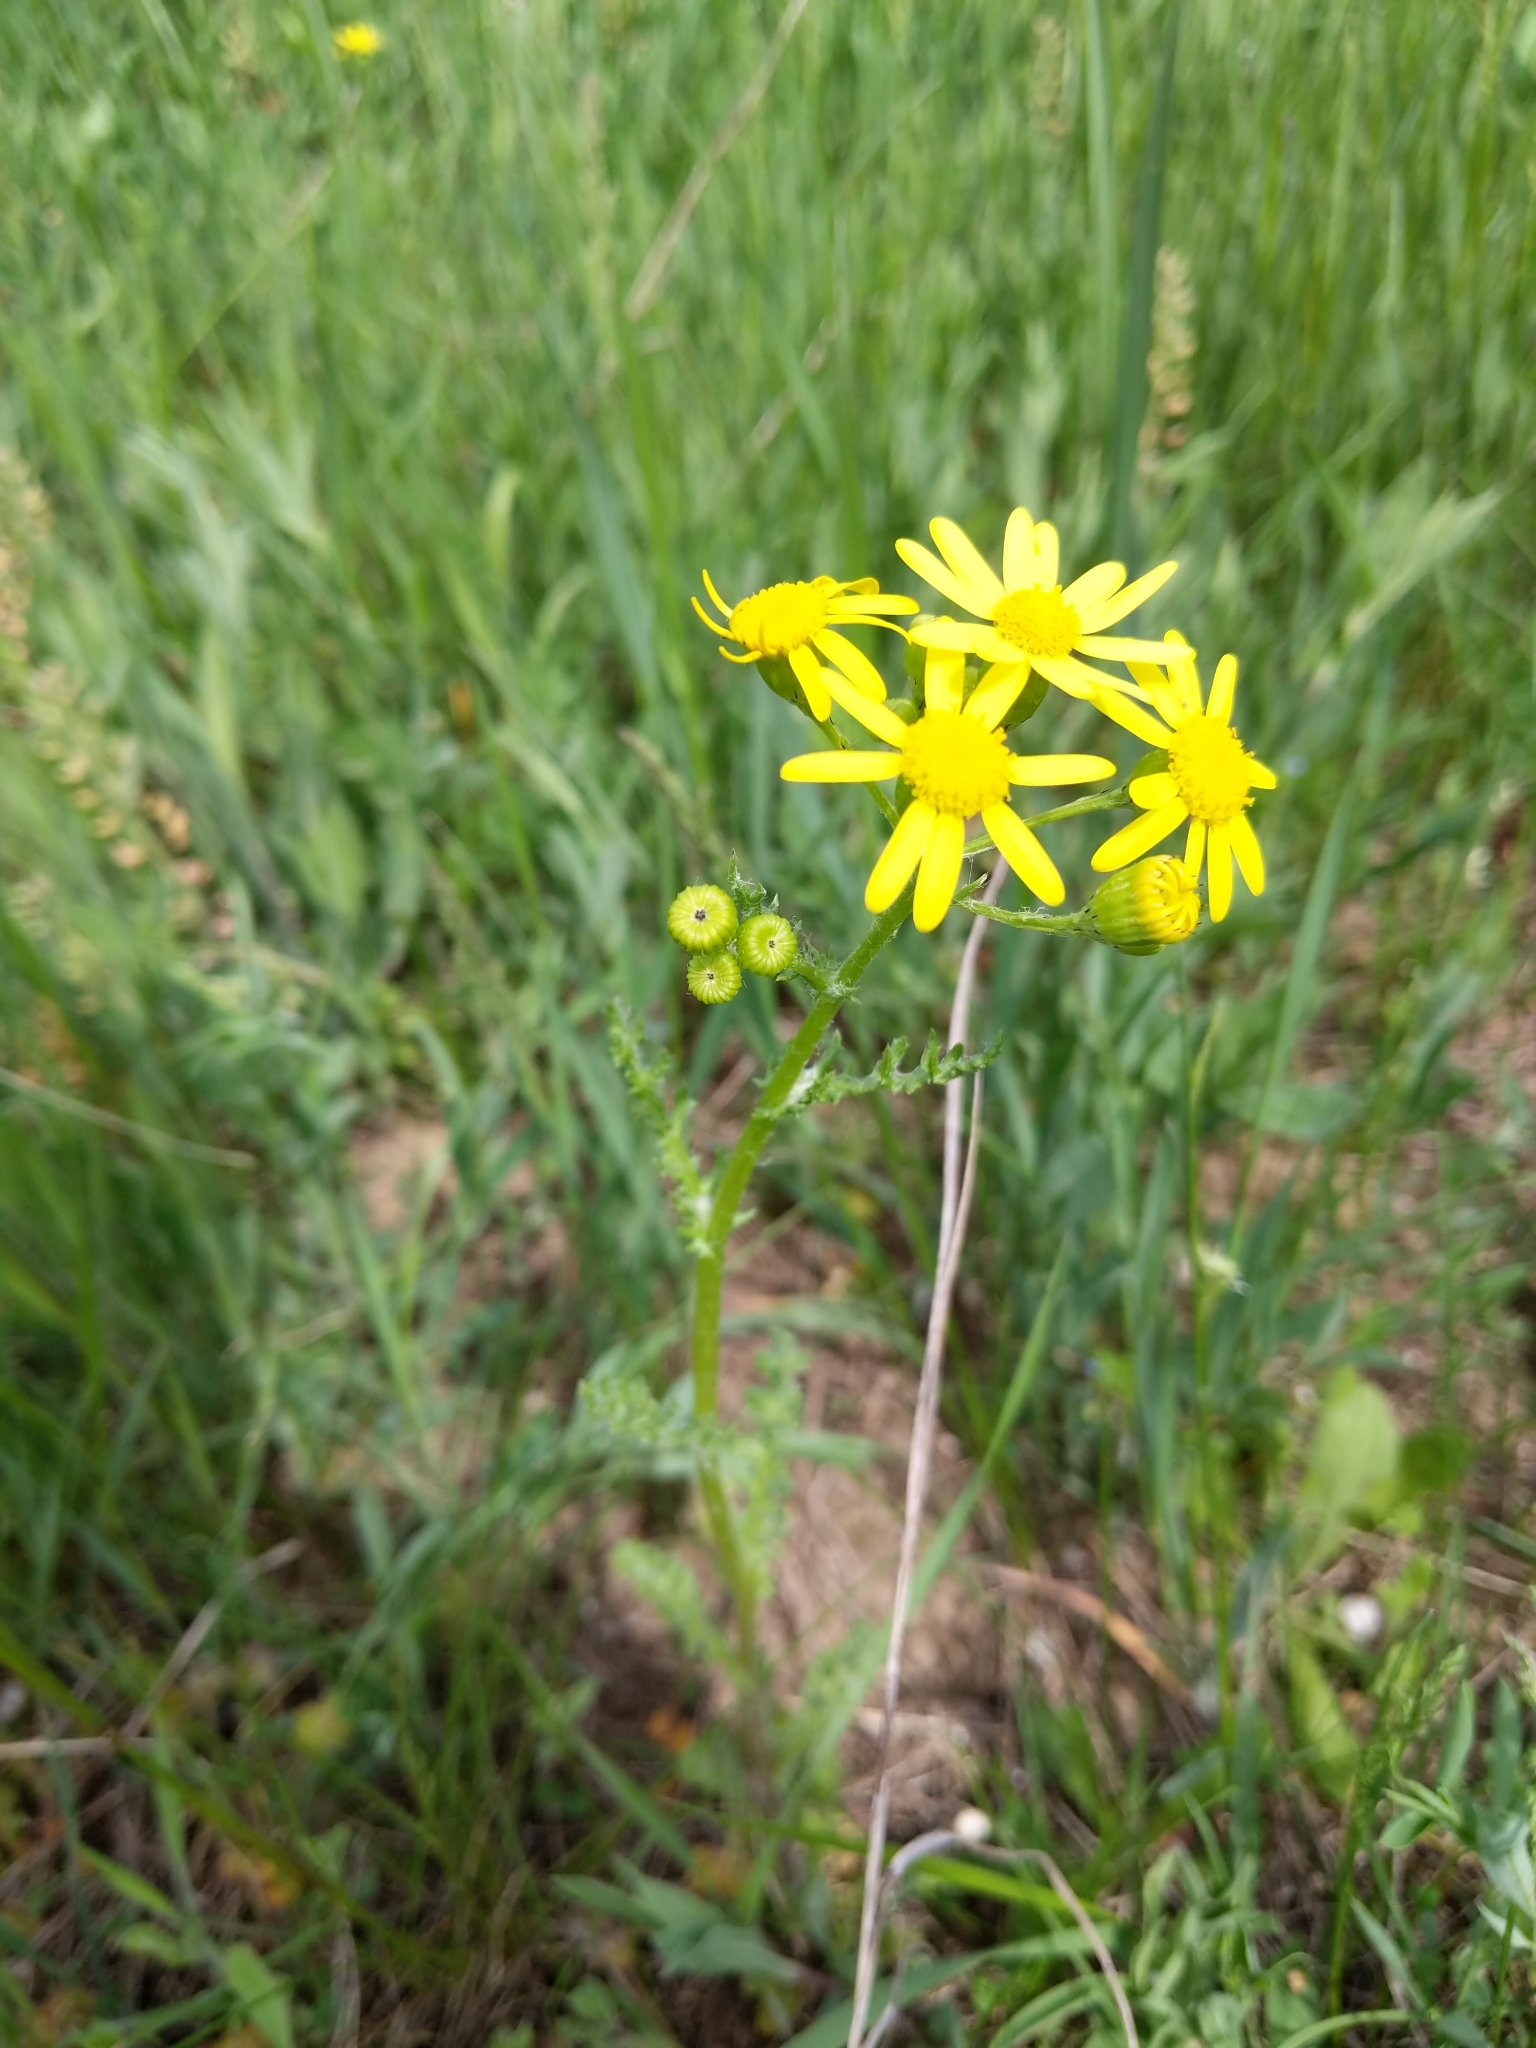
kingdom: Plantae
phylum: Tracheophyta
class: Magnoliopsida
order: Asterales
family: Asteraceae
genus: Senecio
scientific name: Senecio vernalis
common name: Eastern groundsel
